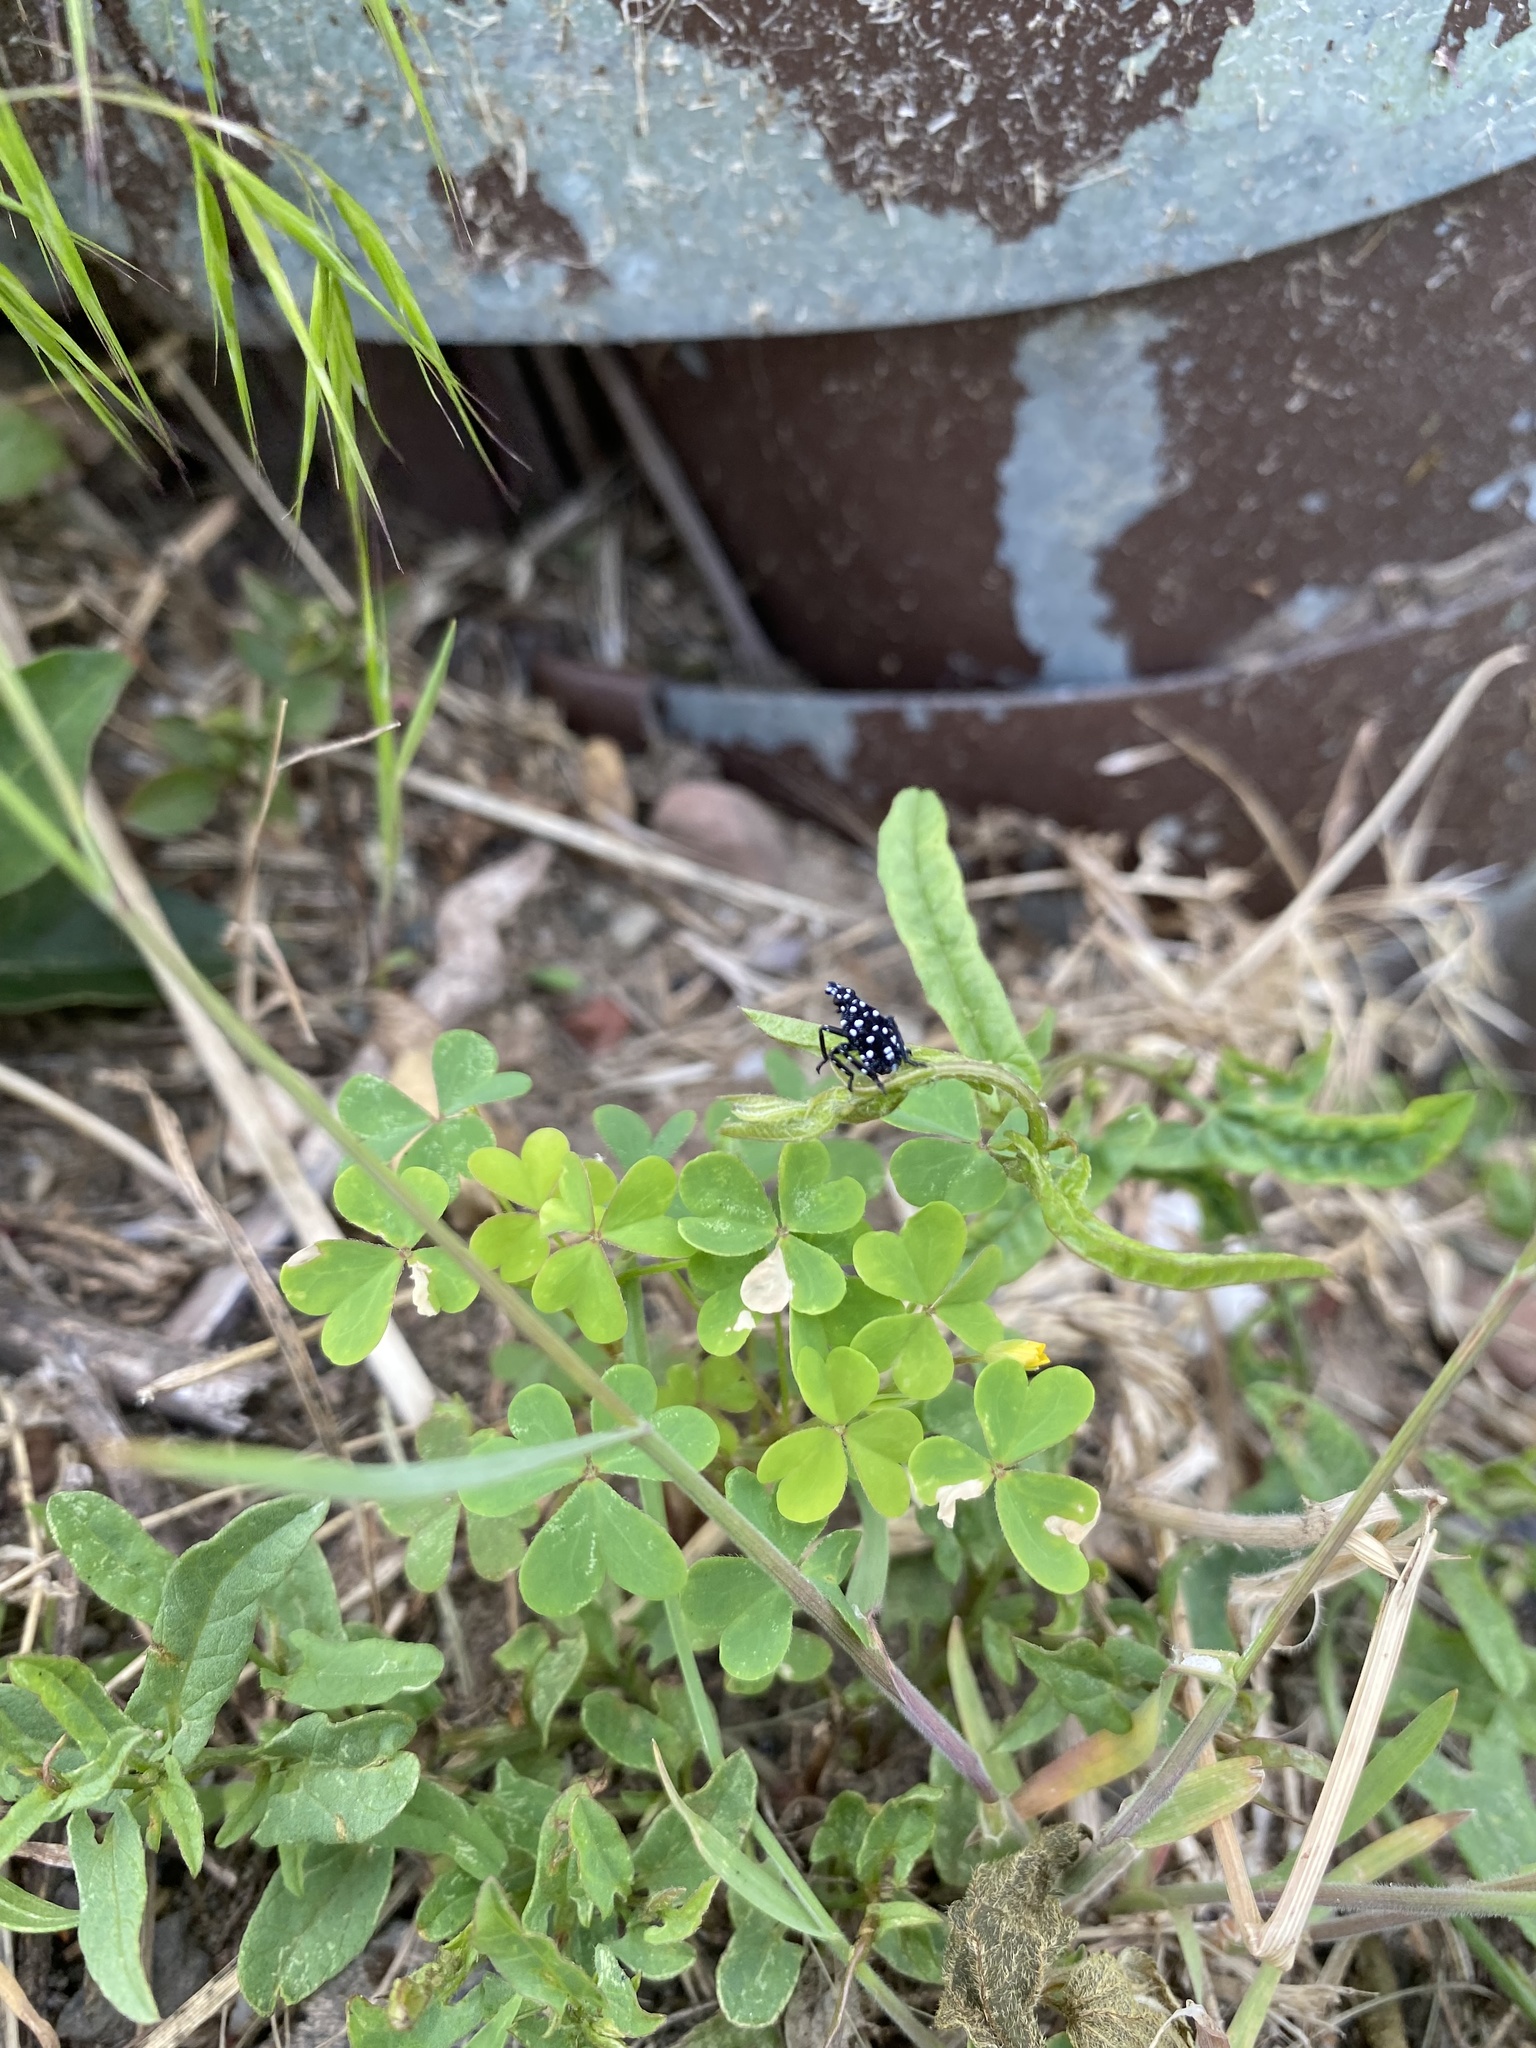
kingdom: Animalia
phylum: Arthropoda
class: Insecta
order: Hemiptera
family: Fulgoridae
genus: Lycorma
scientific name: Lycorma delicatula
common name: Spotted lanternfly
